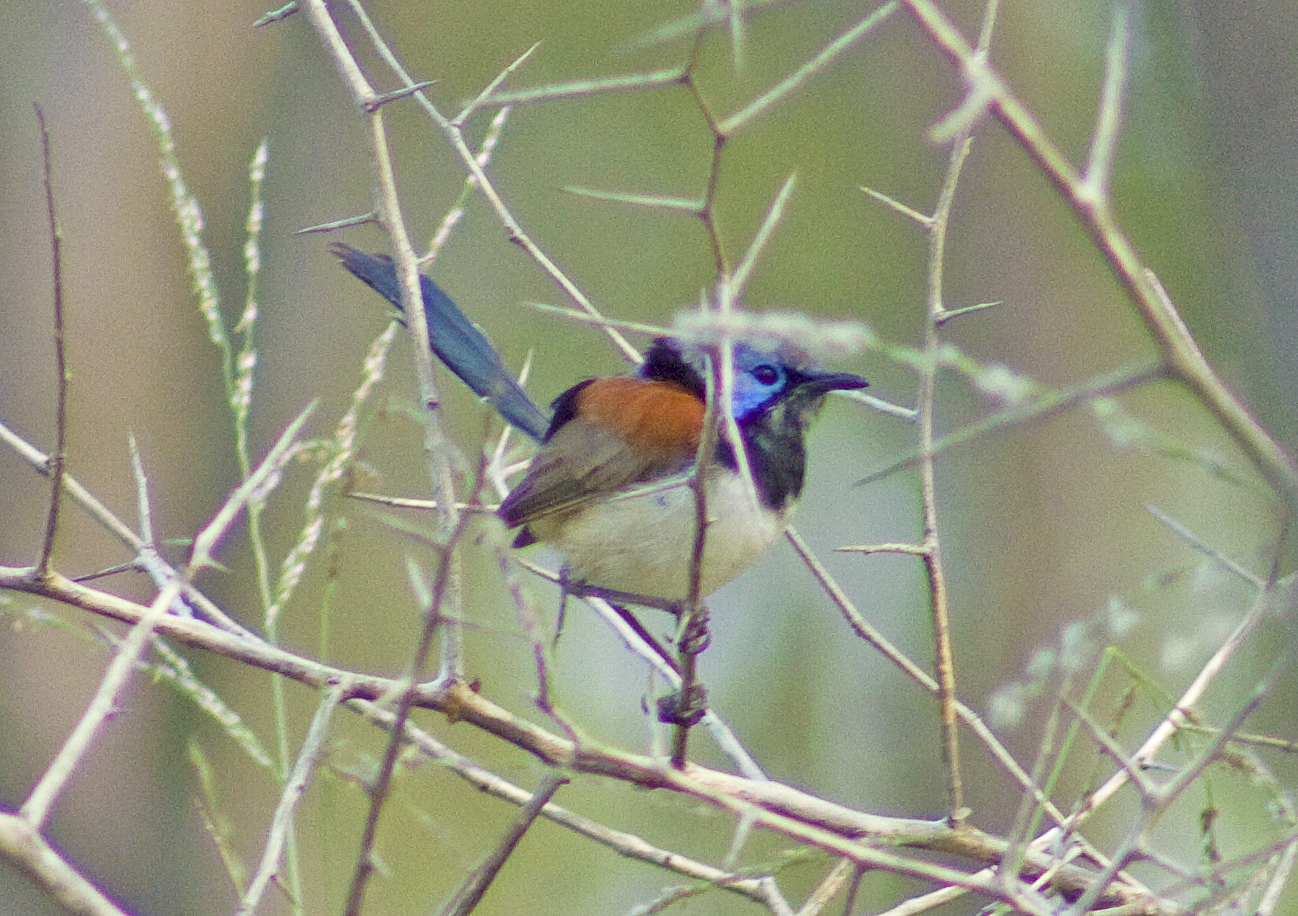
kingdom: Animalia
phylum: Chordata
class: Aves
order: Passeriformes
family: Maluridae
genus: Malurus
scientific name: Malurus assimilis
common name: Purple-backed fairywren
